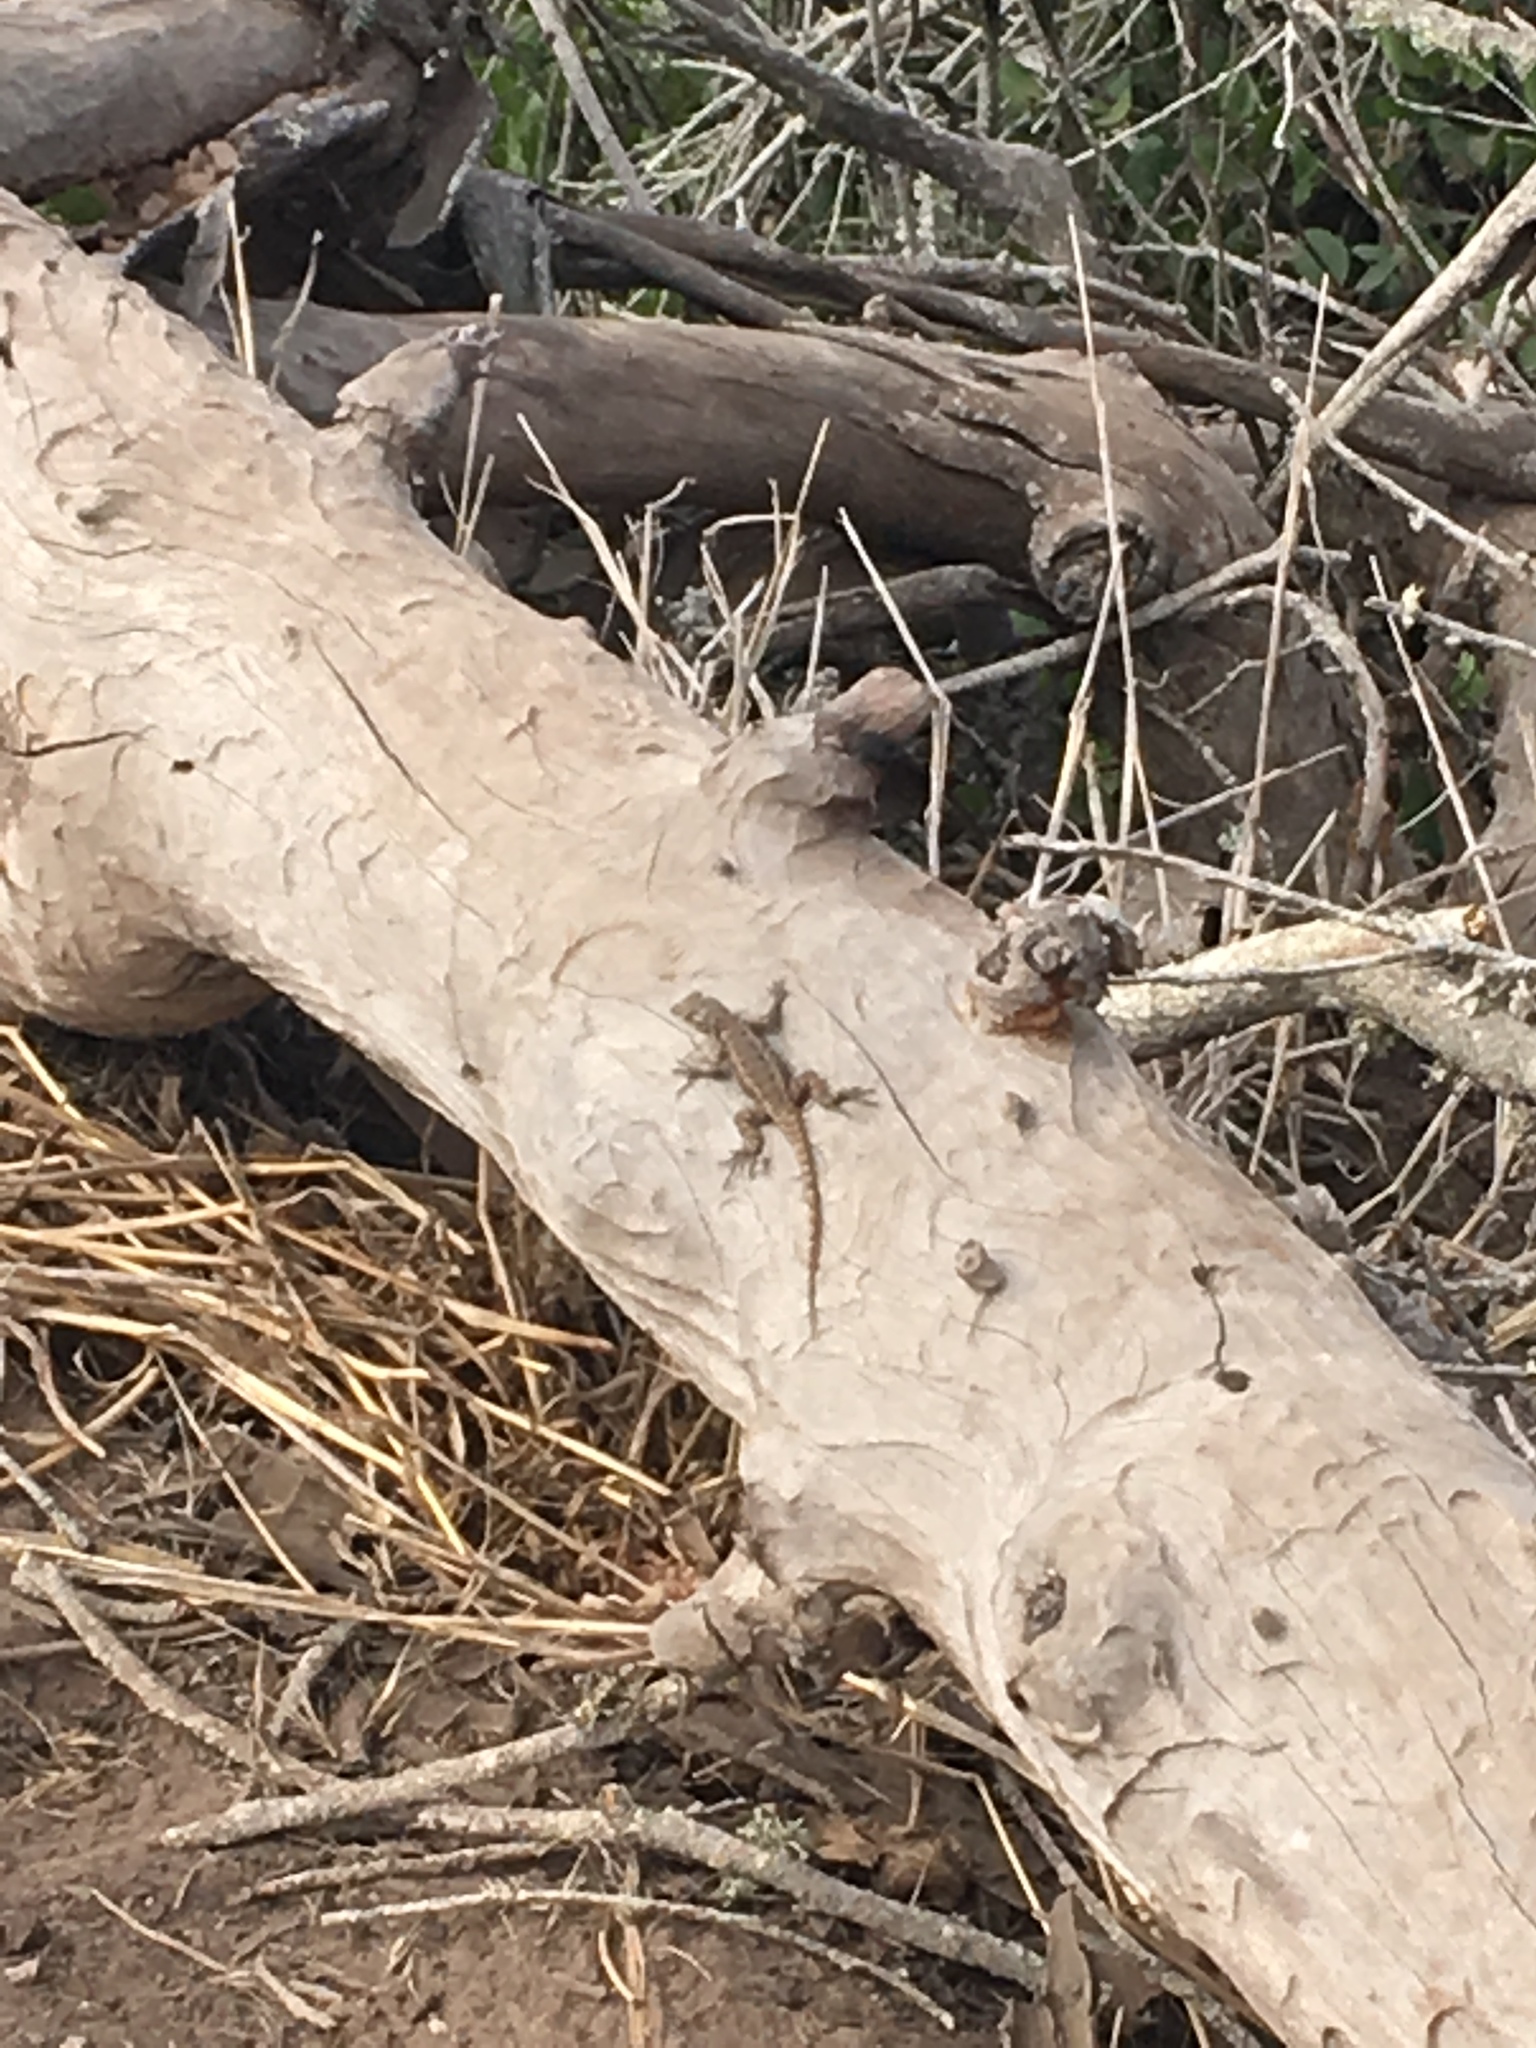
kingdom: Animalia
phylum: Chordata
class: Squamata
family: Phrynosomatidae
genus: Sceloporus
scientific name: Sceloporus occidentalis
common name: Western fence lizard
